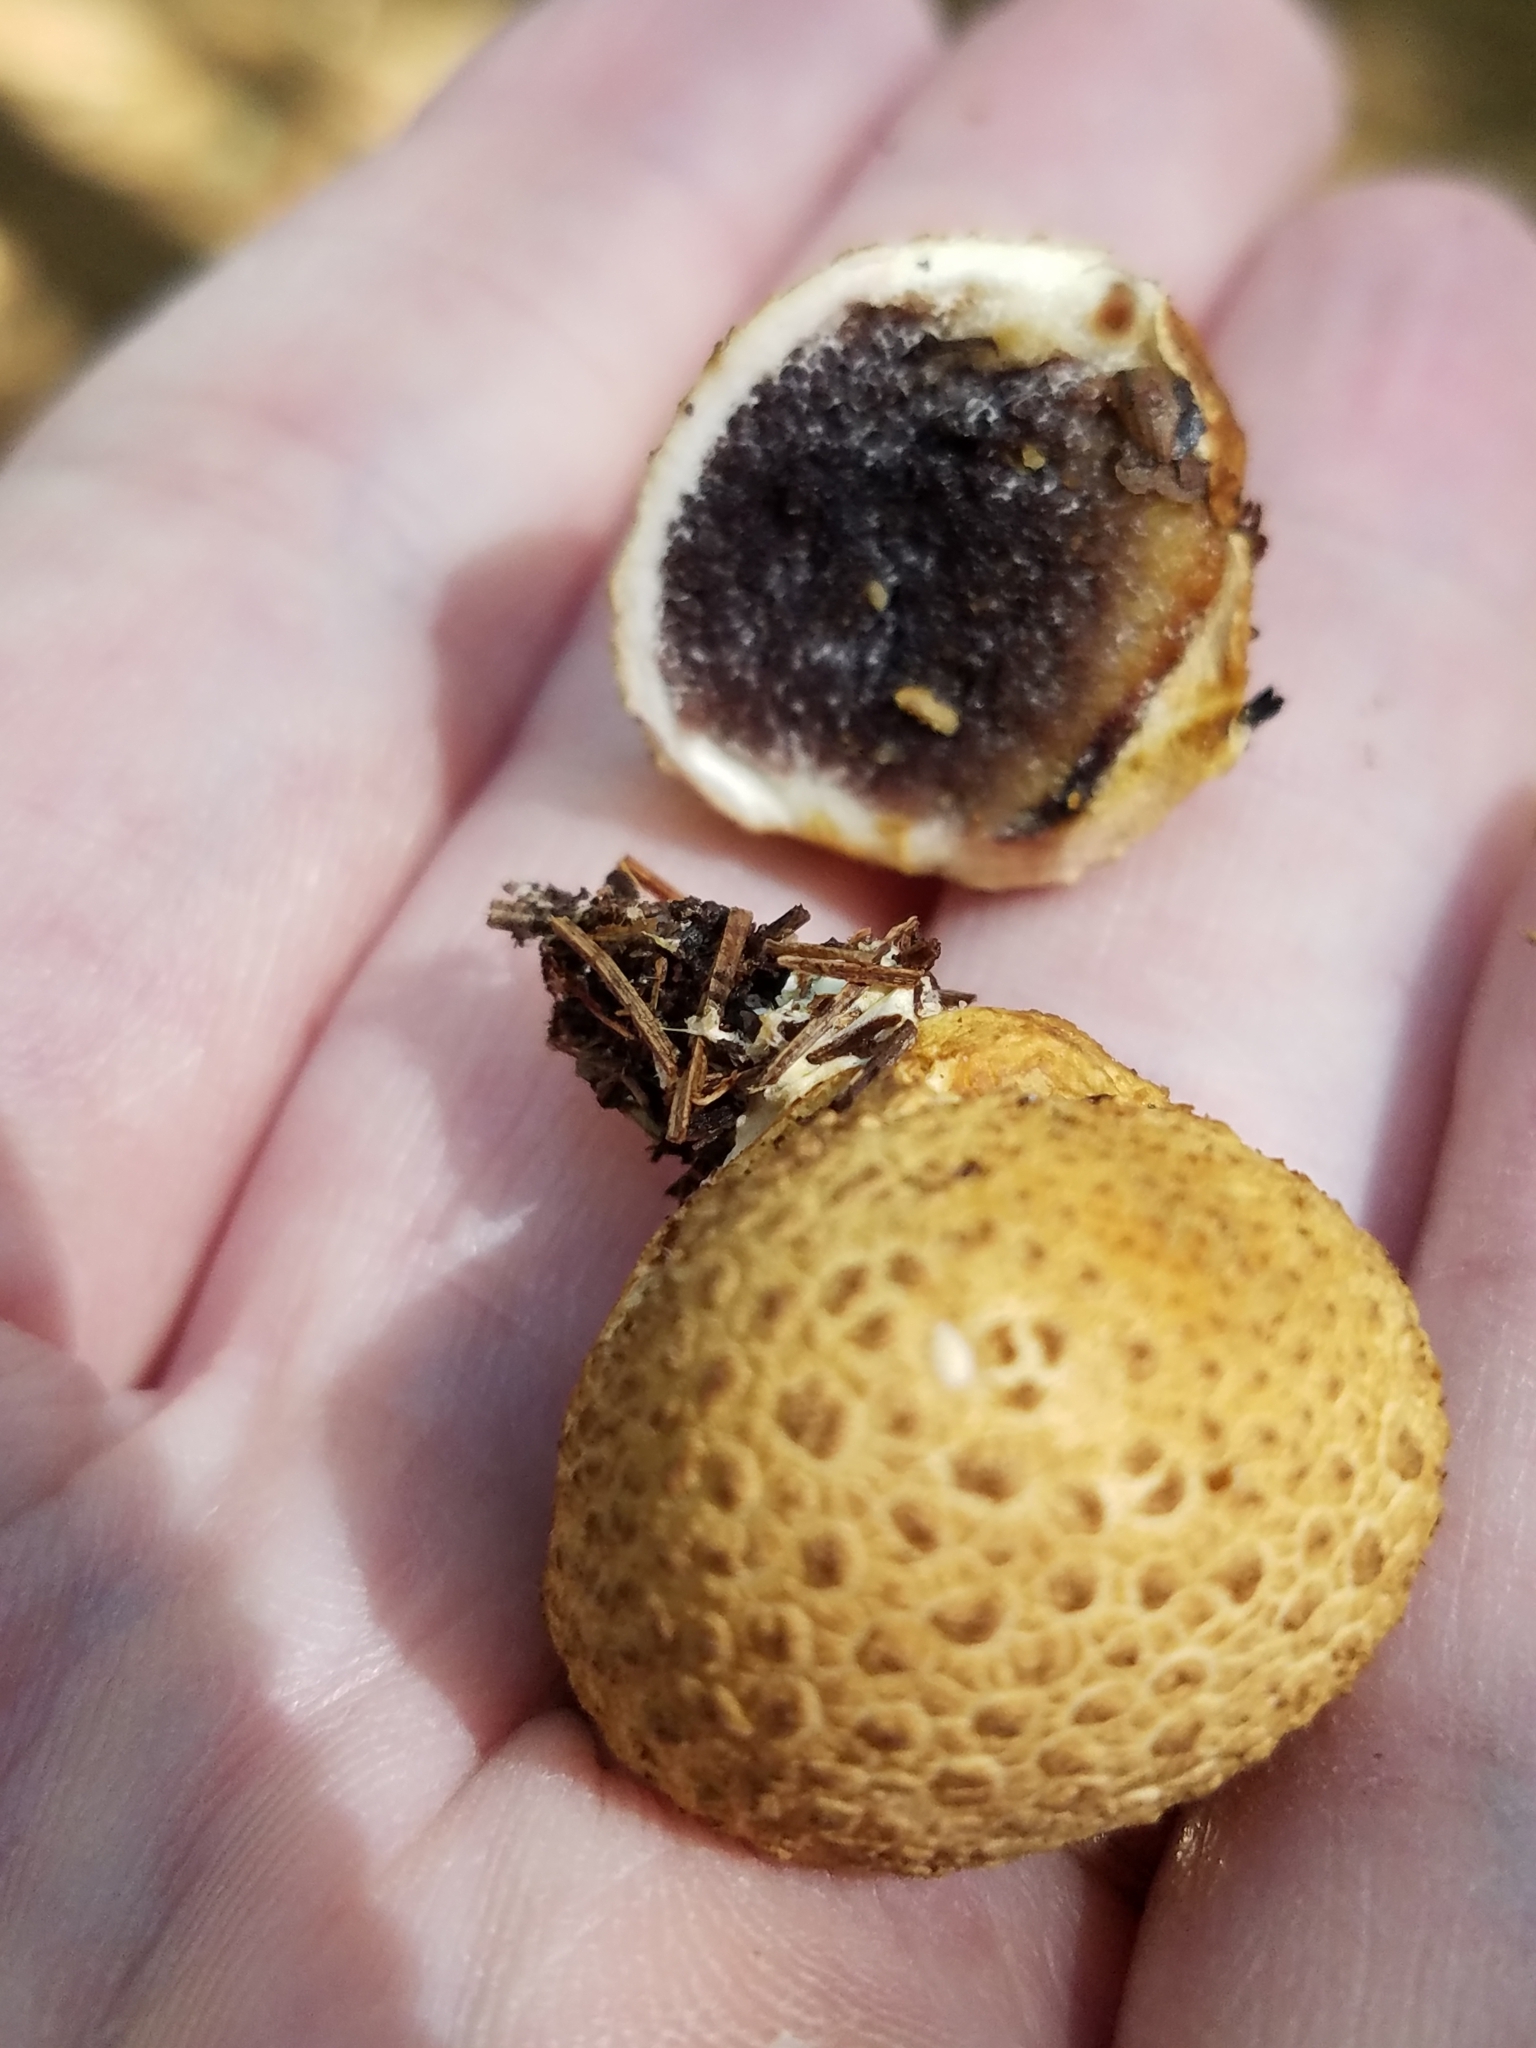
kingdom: Fungi
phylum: Basidiomycota
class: Agaricomycetes
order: Boletales
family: Sclerodermataceae
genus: Scleroderma
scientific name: Scleroderma citrinum
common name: Common earthball
